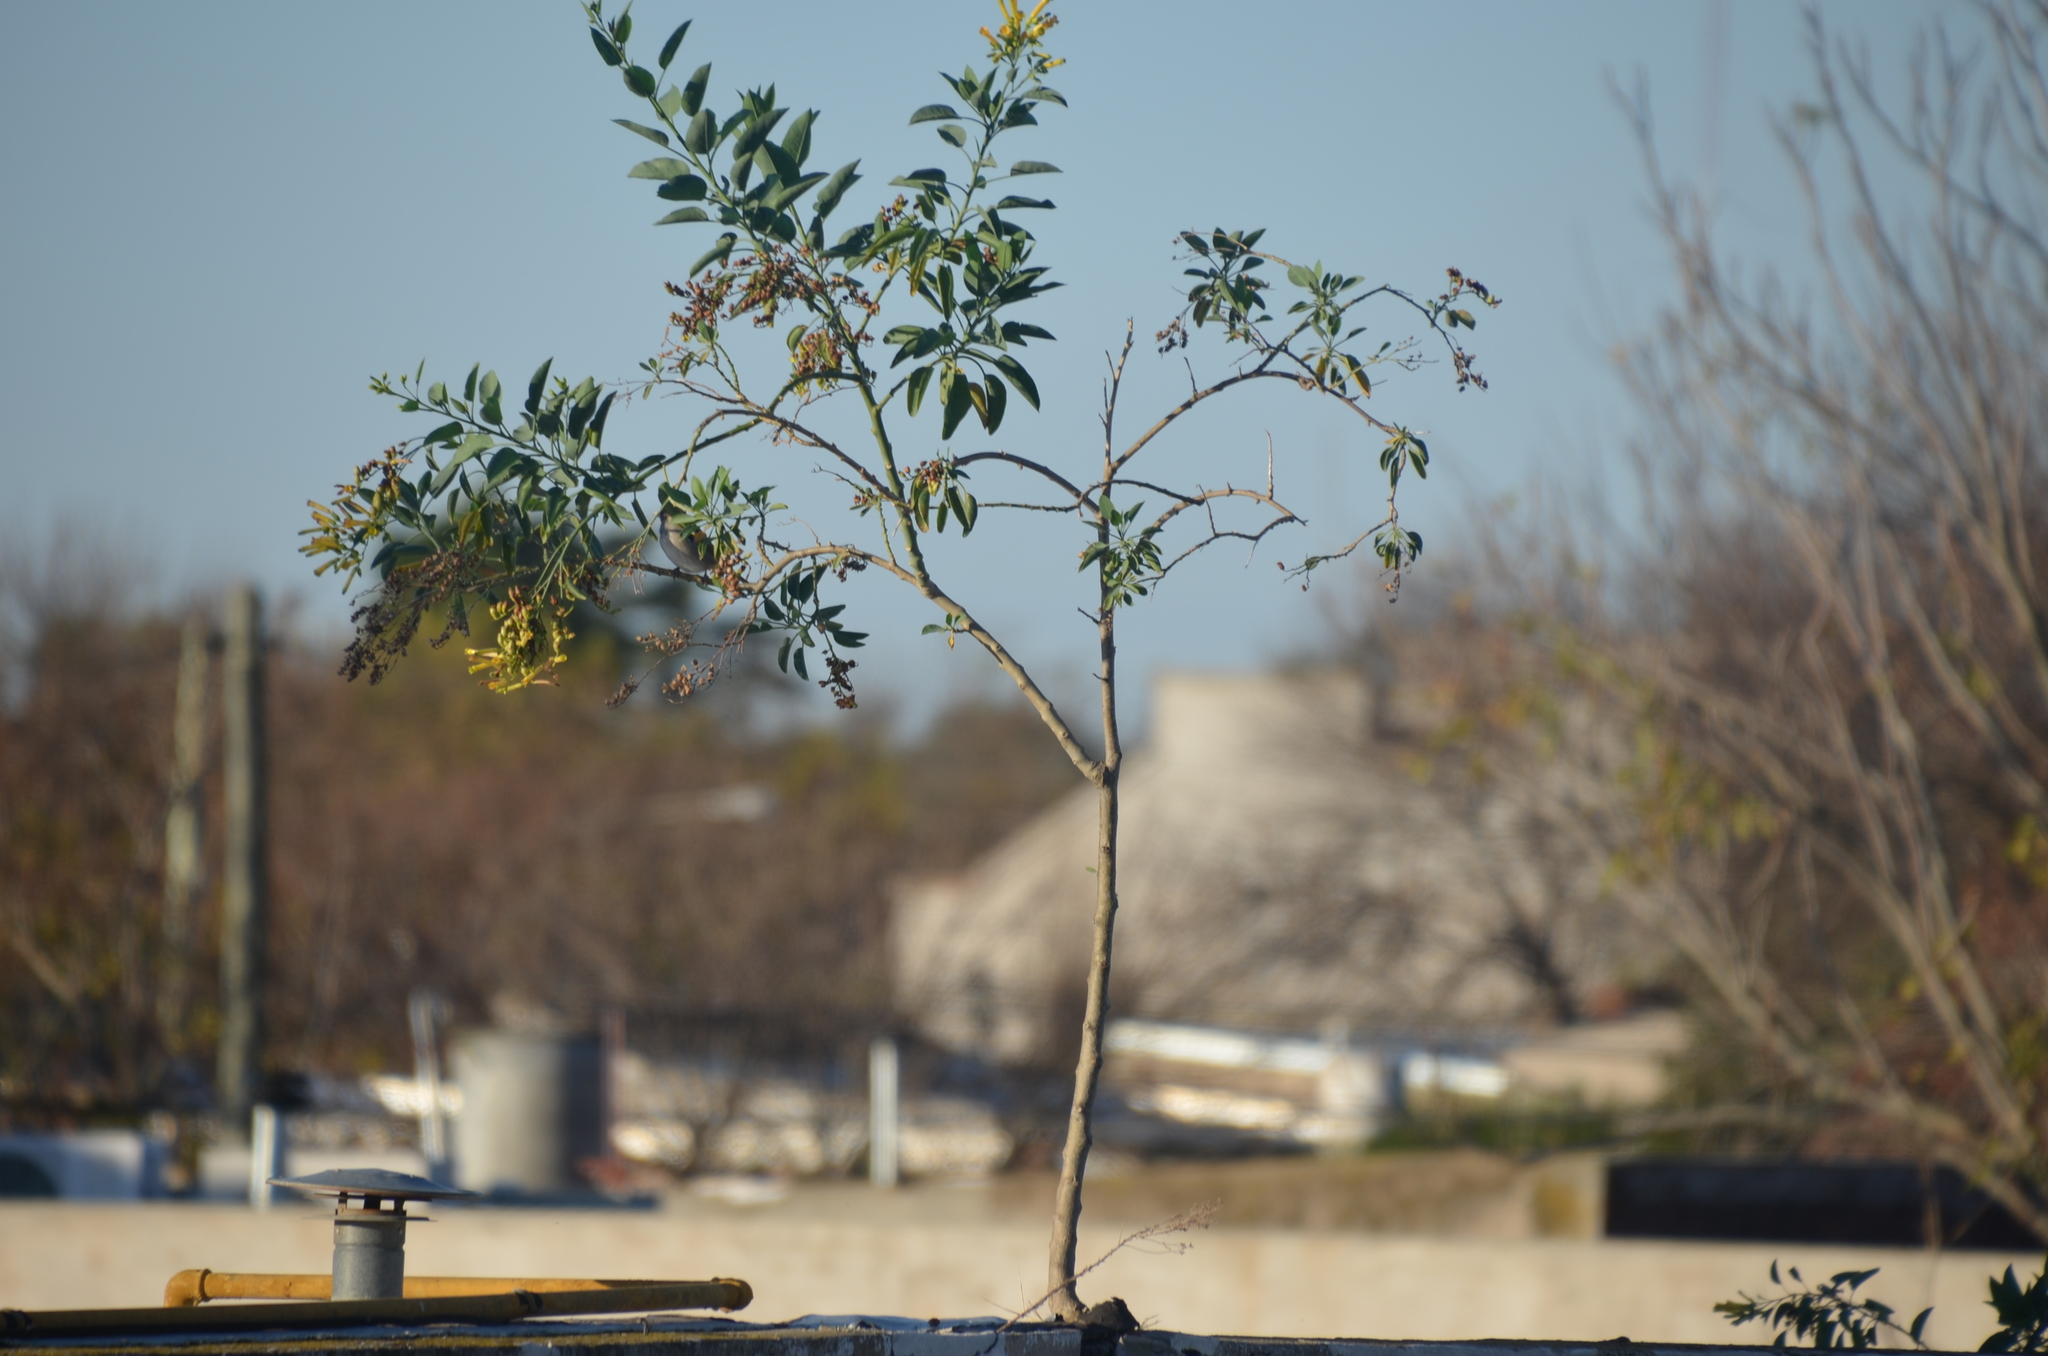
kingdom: Plantae
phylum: Tracheophyta
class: Magnoliopsida
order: Solanales
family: Solanaceae
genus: Nicotiana
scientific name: Nicotiana glauca
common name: Tree tobacco
